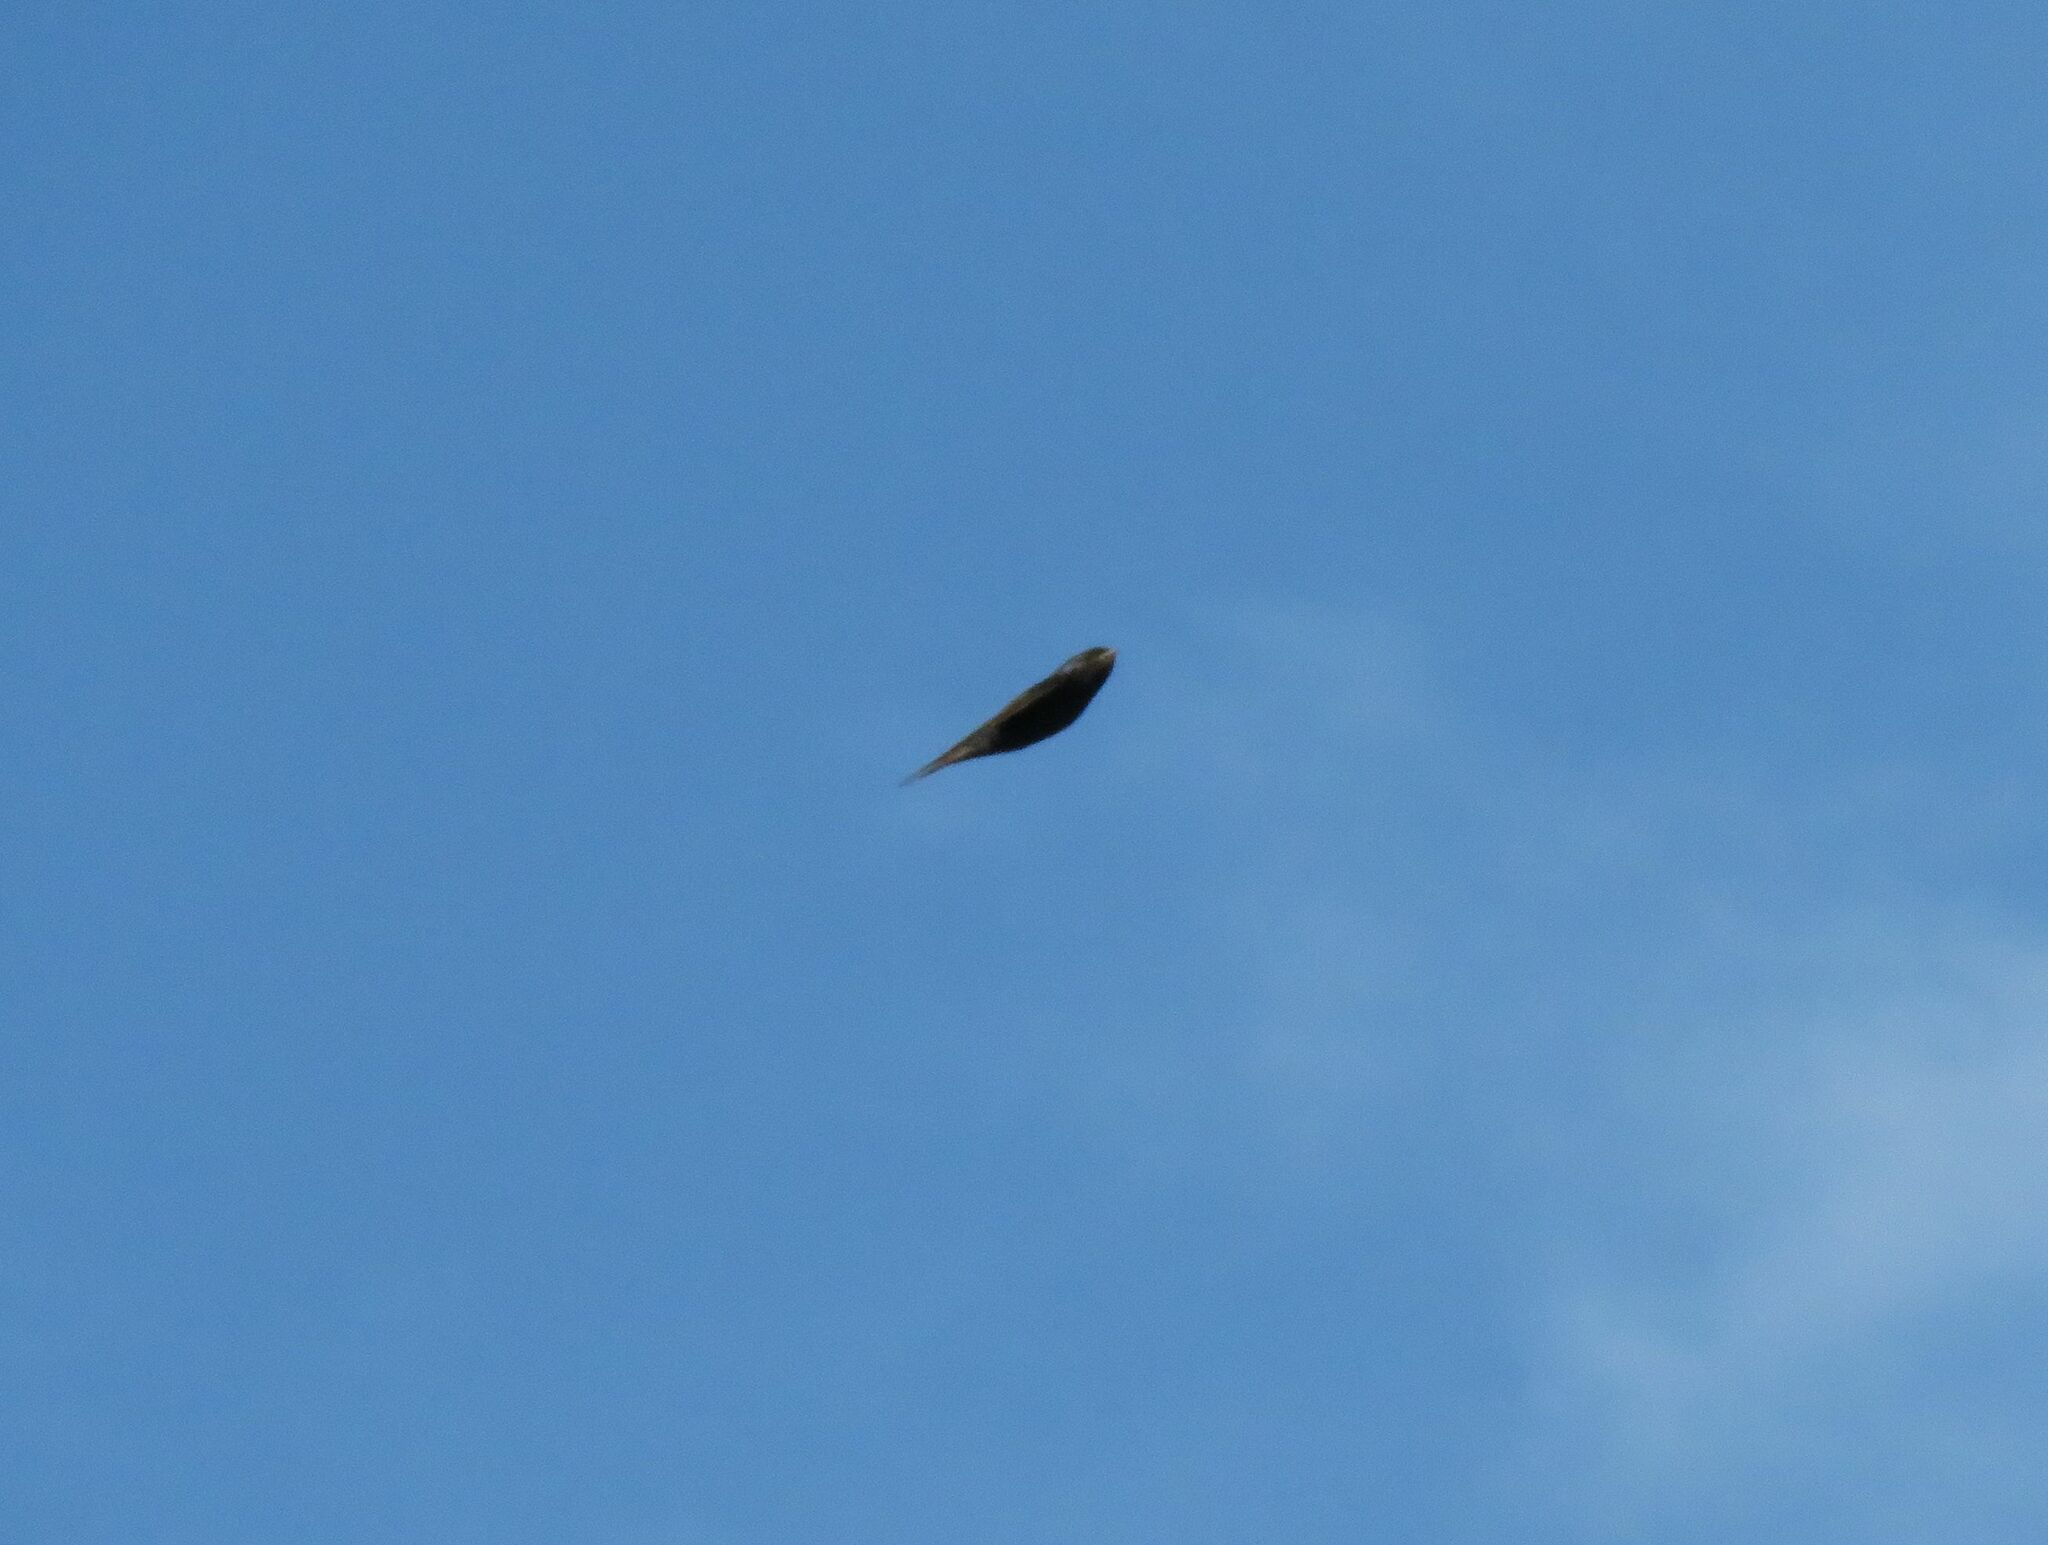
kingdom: Animalia
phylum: Chordata
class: Aves
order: Passeriformes
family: Hirundinidae
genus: Progne
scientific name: Progne elegans
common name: Southern martin
